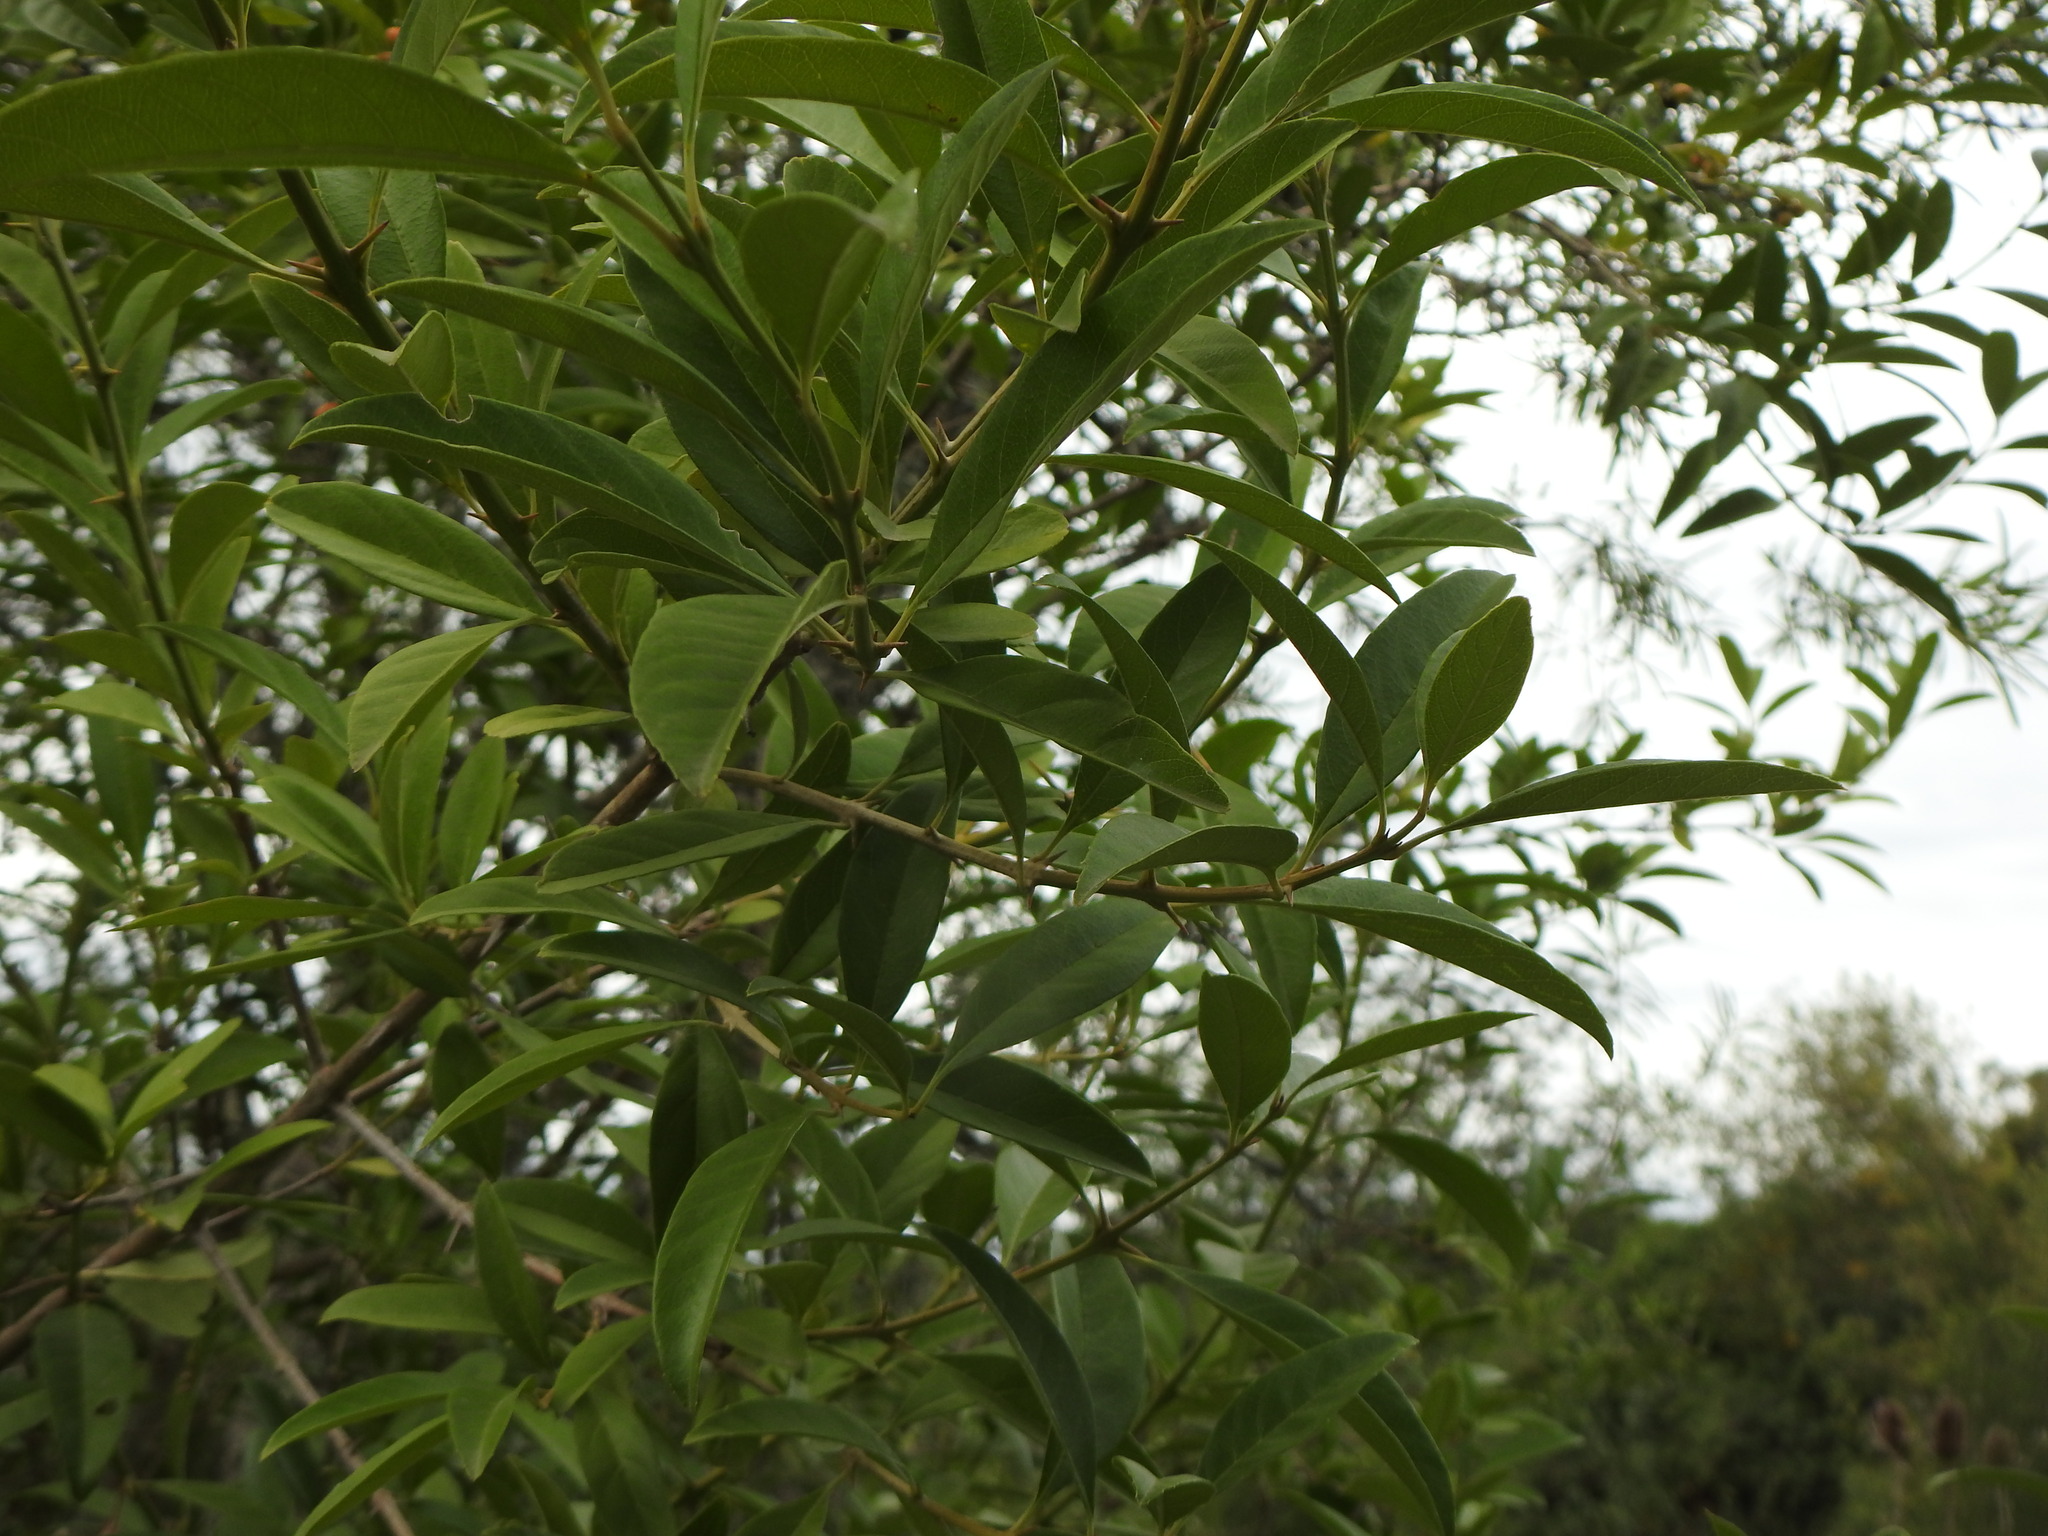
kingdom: Plantae
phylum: Tracheophyta
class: Magnoliopsida
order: Lamiales
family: Verbenaceae
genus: Citharexylum
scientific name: Citharexylum montevidense
